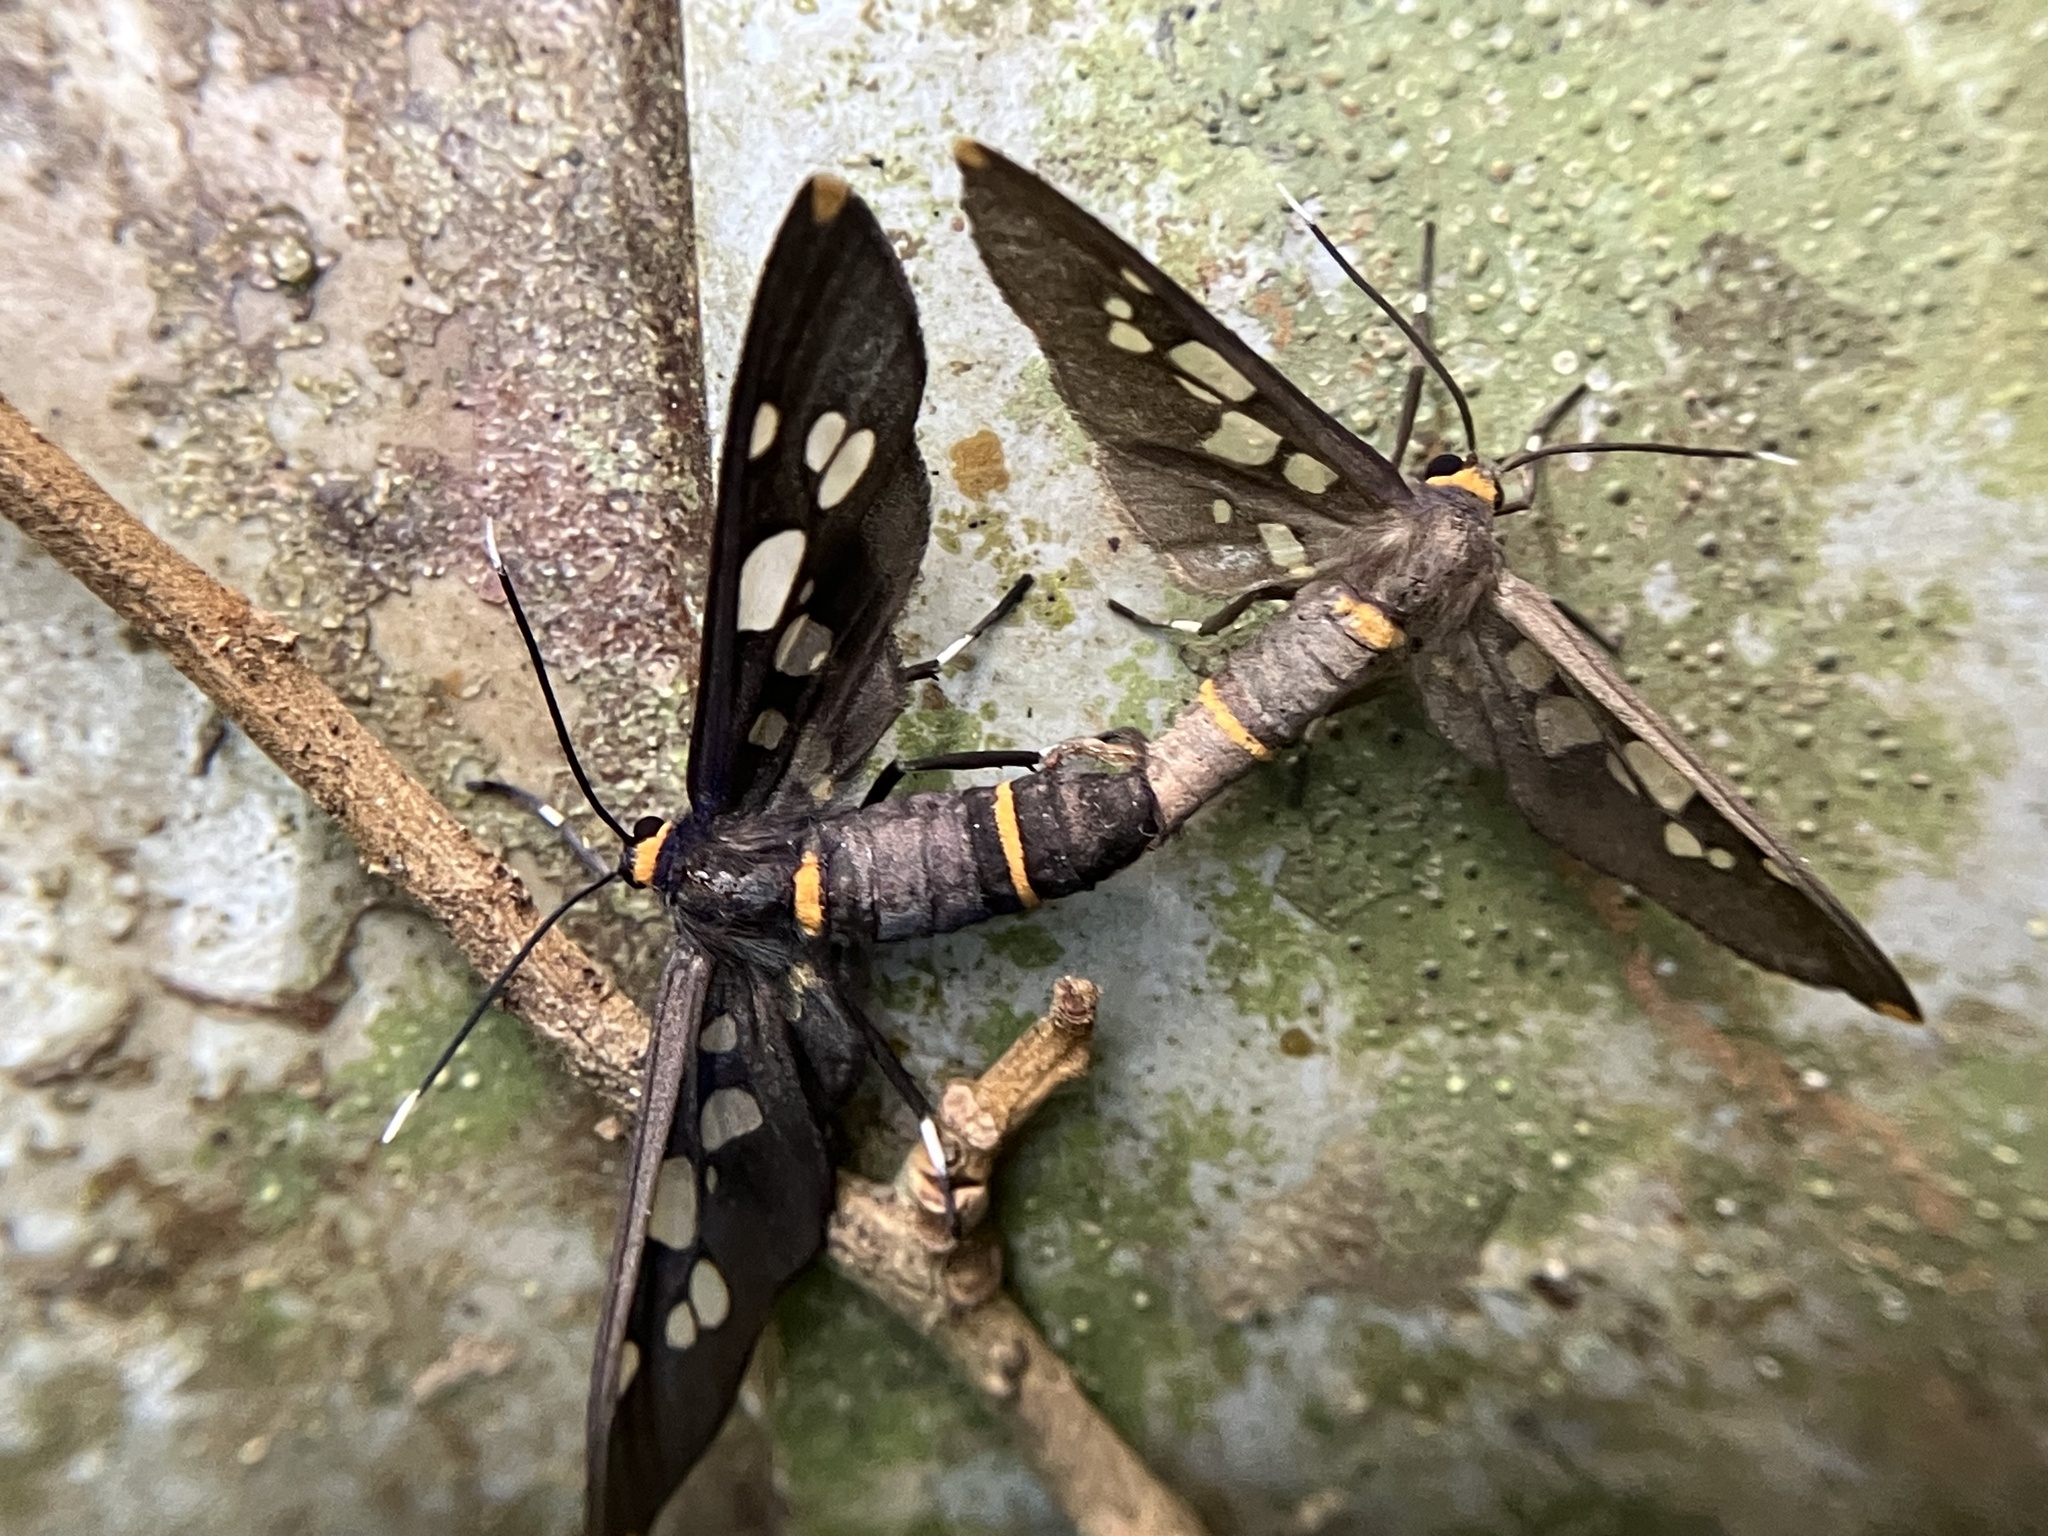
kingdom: Animalia
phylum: Arthropoda
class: Insecta
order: Lepidoptera
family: Erebidae
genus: Amata
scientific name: Amata cyssea
